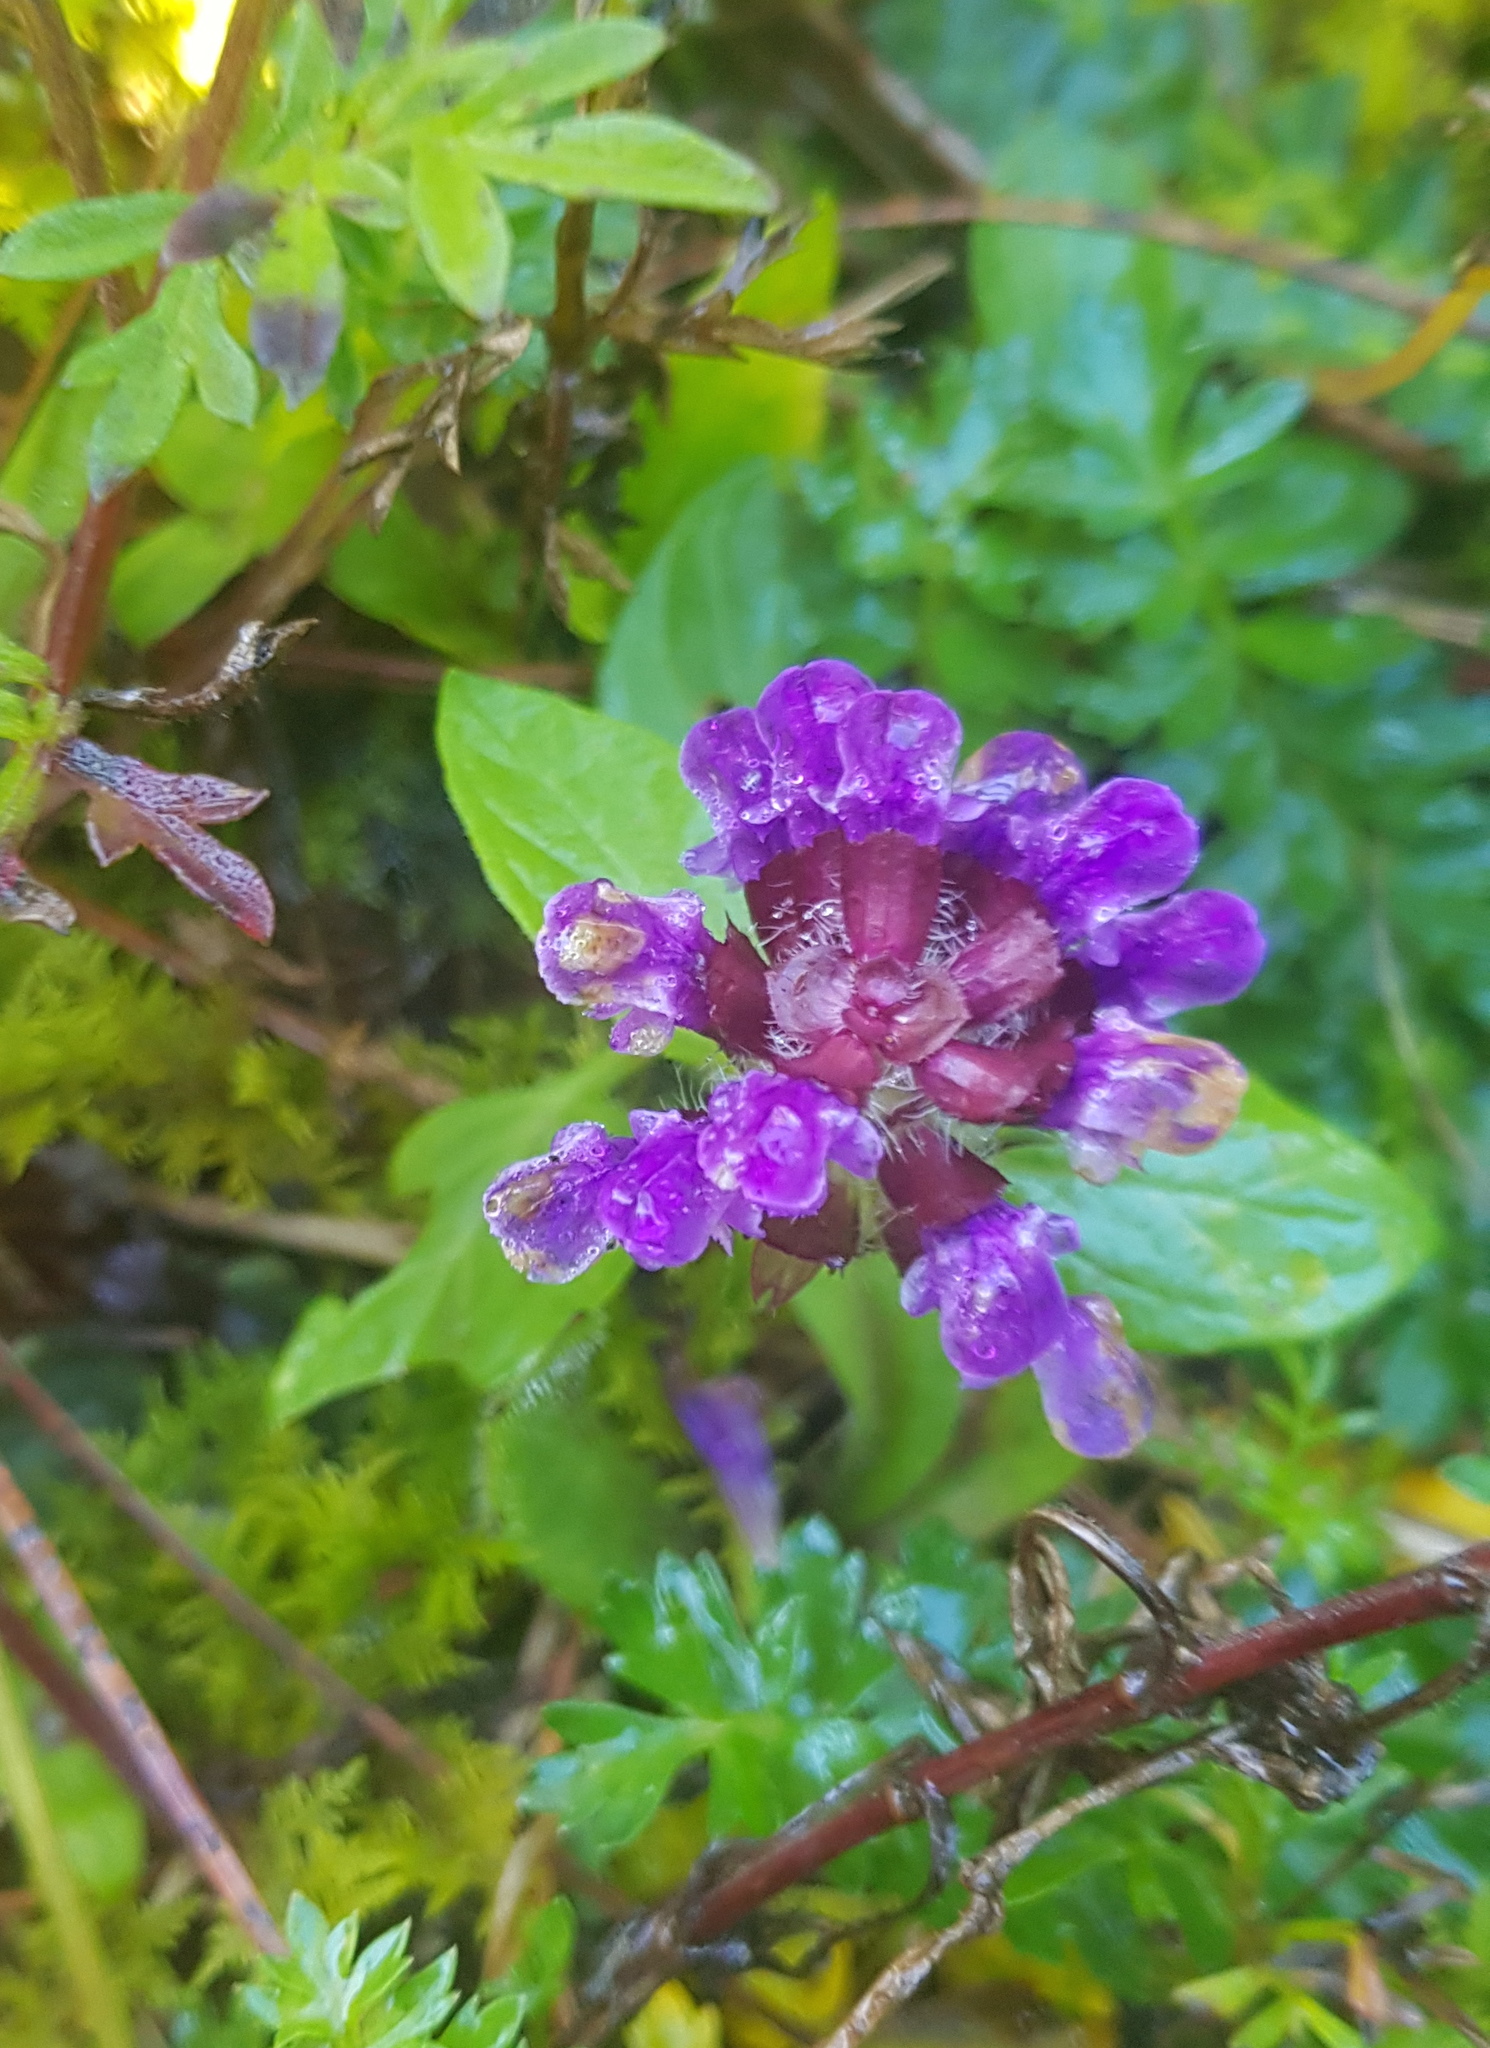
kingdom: Plantae
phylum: Tracheophyta
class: Magnoliopsida
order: Lamiales
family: Lamiaceae
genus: Prunella
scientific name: Prunella vulgaris
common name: Heal-all
